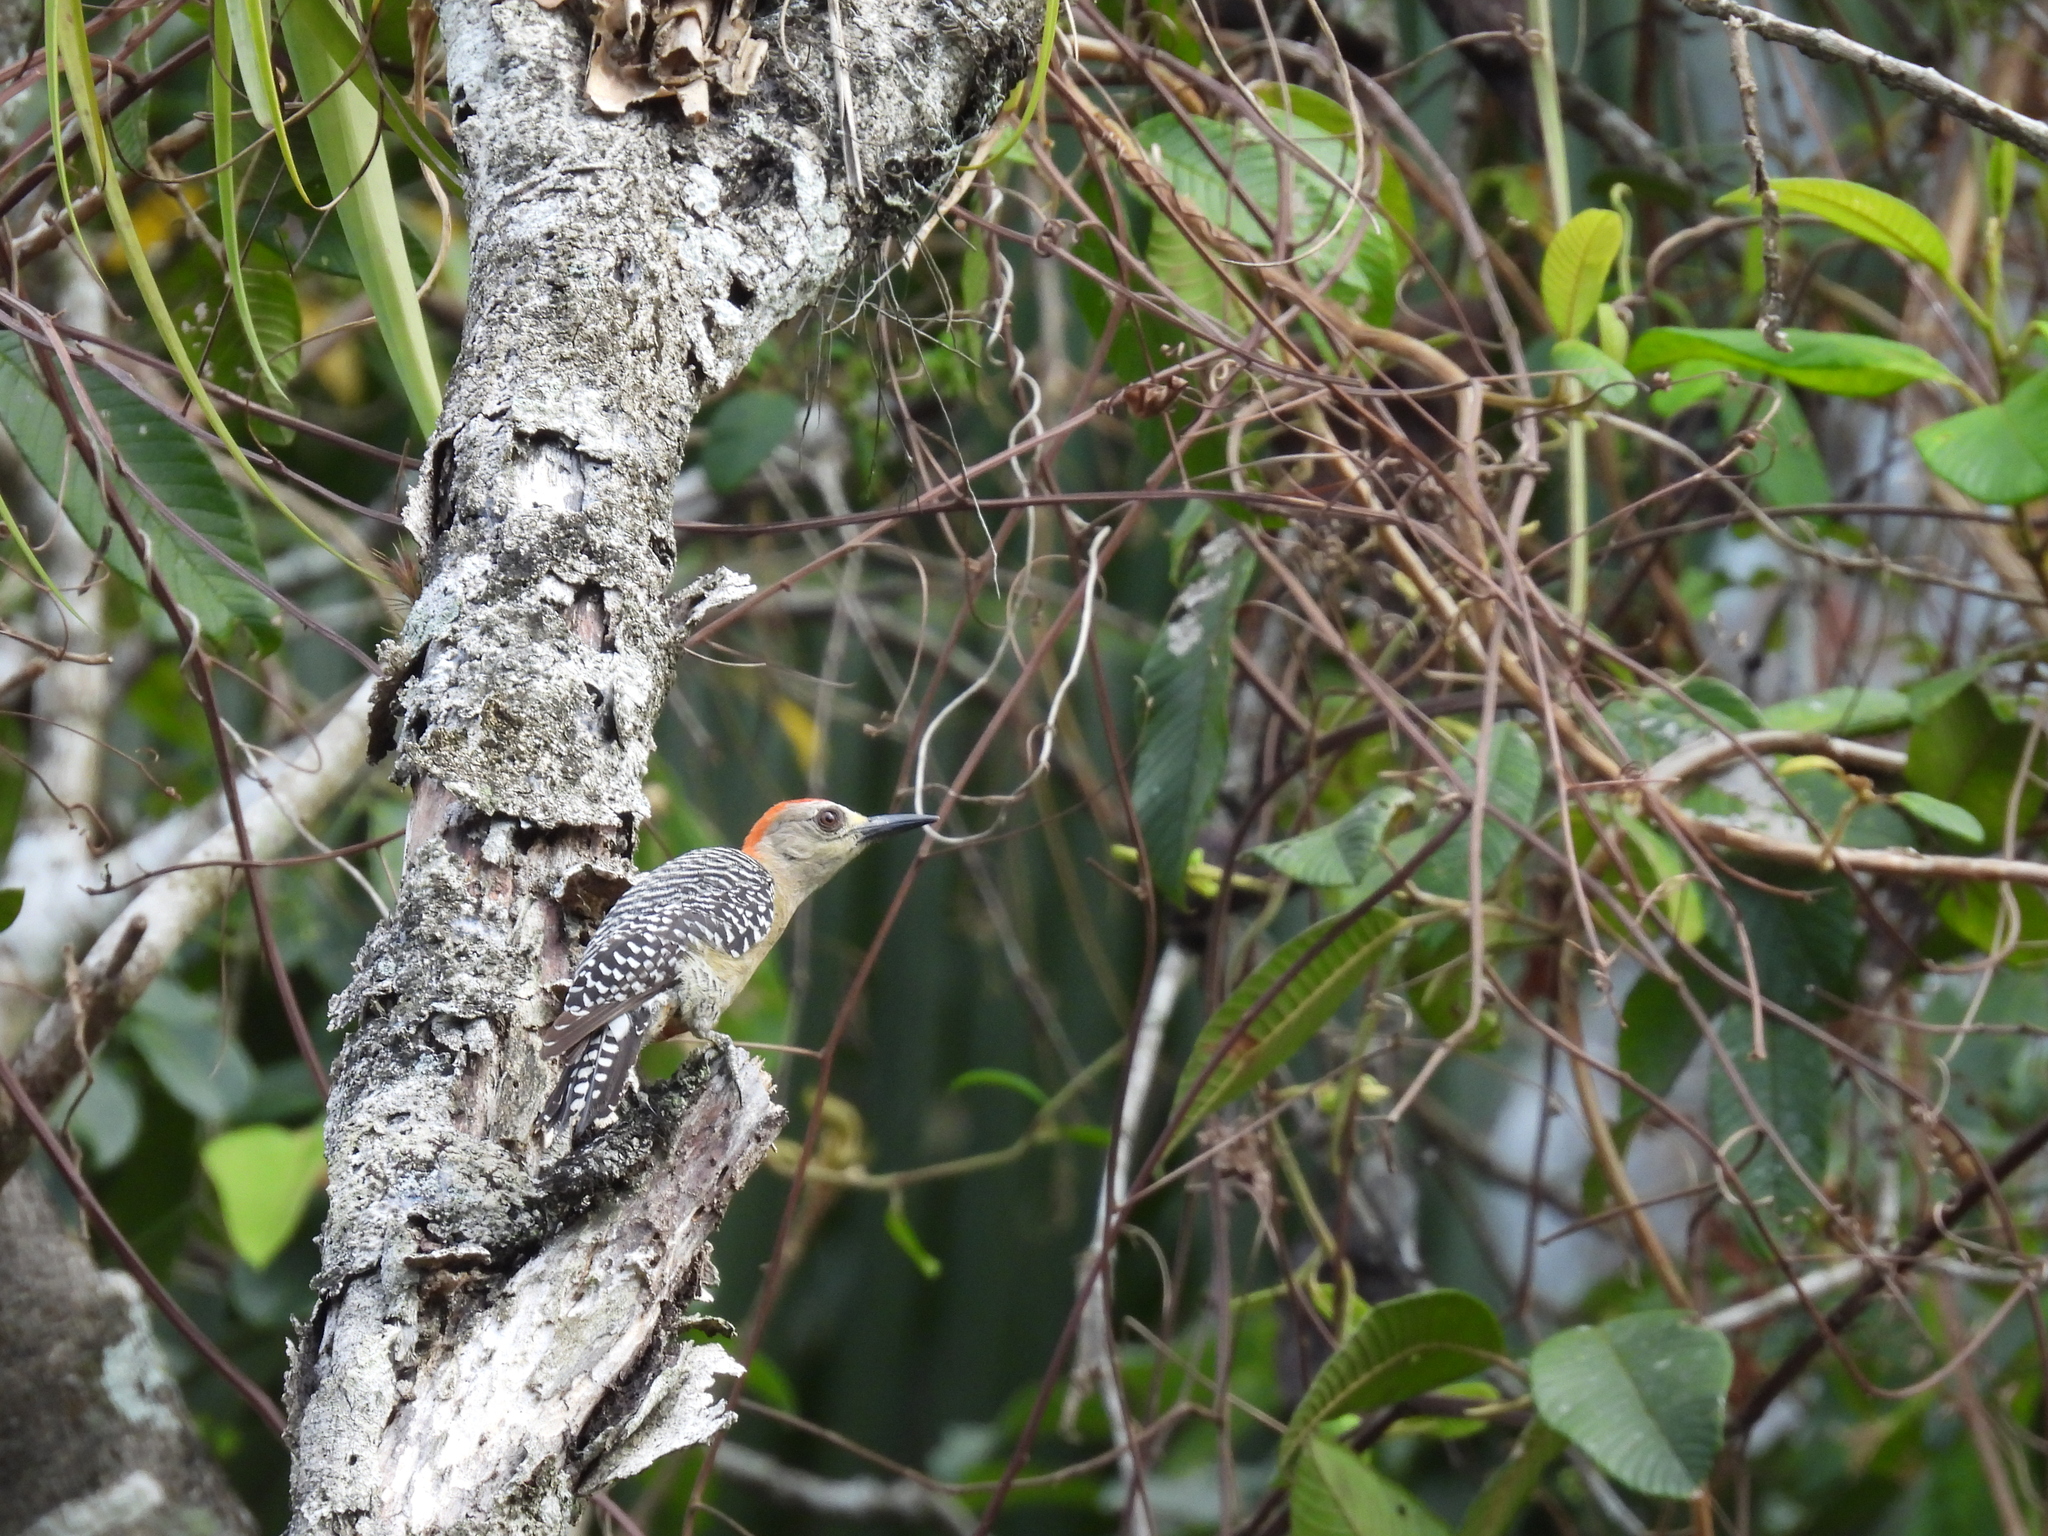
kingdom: Animalia
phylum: Chordata
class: Aves
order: Piciformes
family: Picidae
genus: Melanerpes
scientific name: Melanerpes rubricapillus
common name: Red-crowned woodpecker
